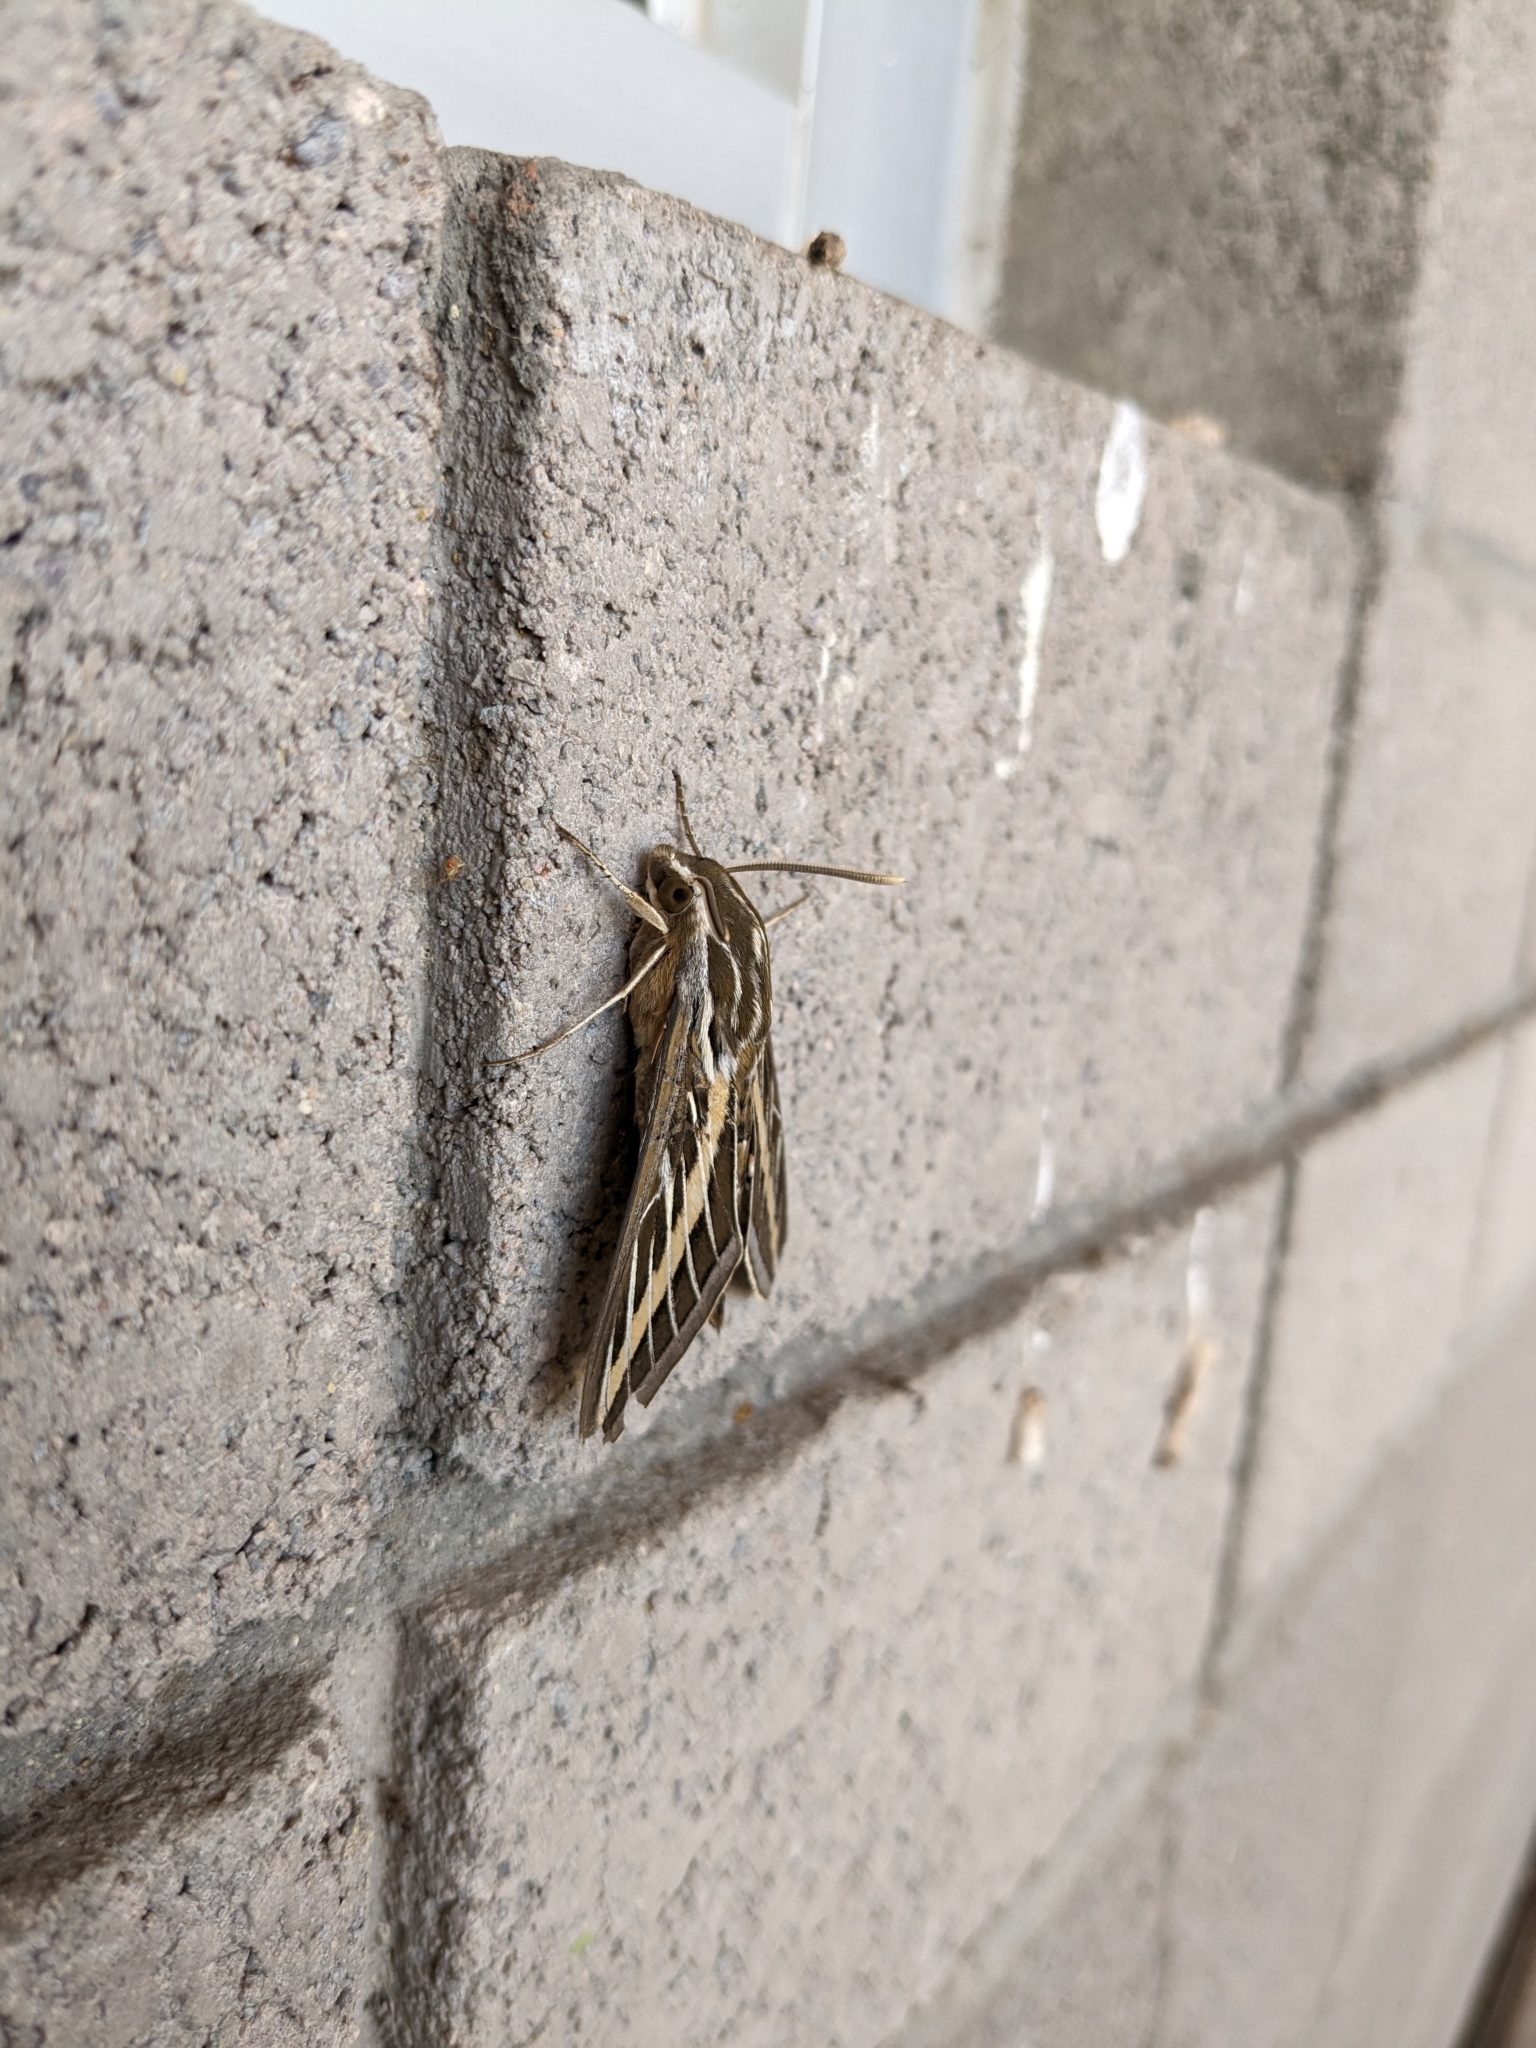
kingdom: Animalia
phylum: Arthropoda
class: Insecta
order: Lepidoptera
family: Sphingidae
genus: Hyles
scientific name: Hyles lineata
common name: White-lined sphinx
